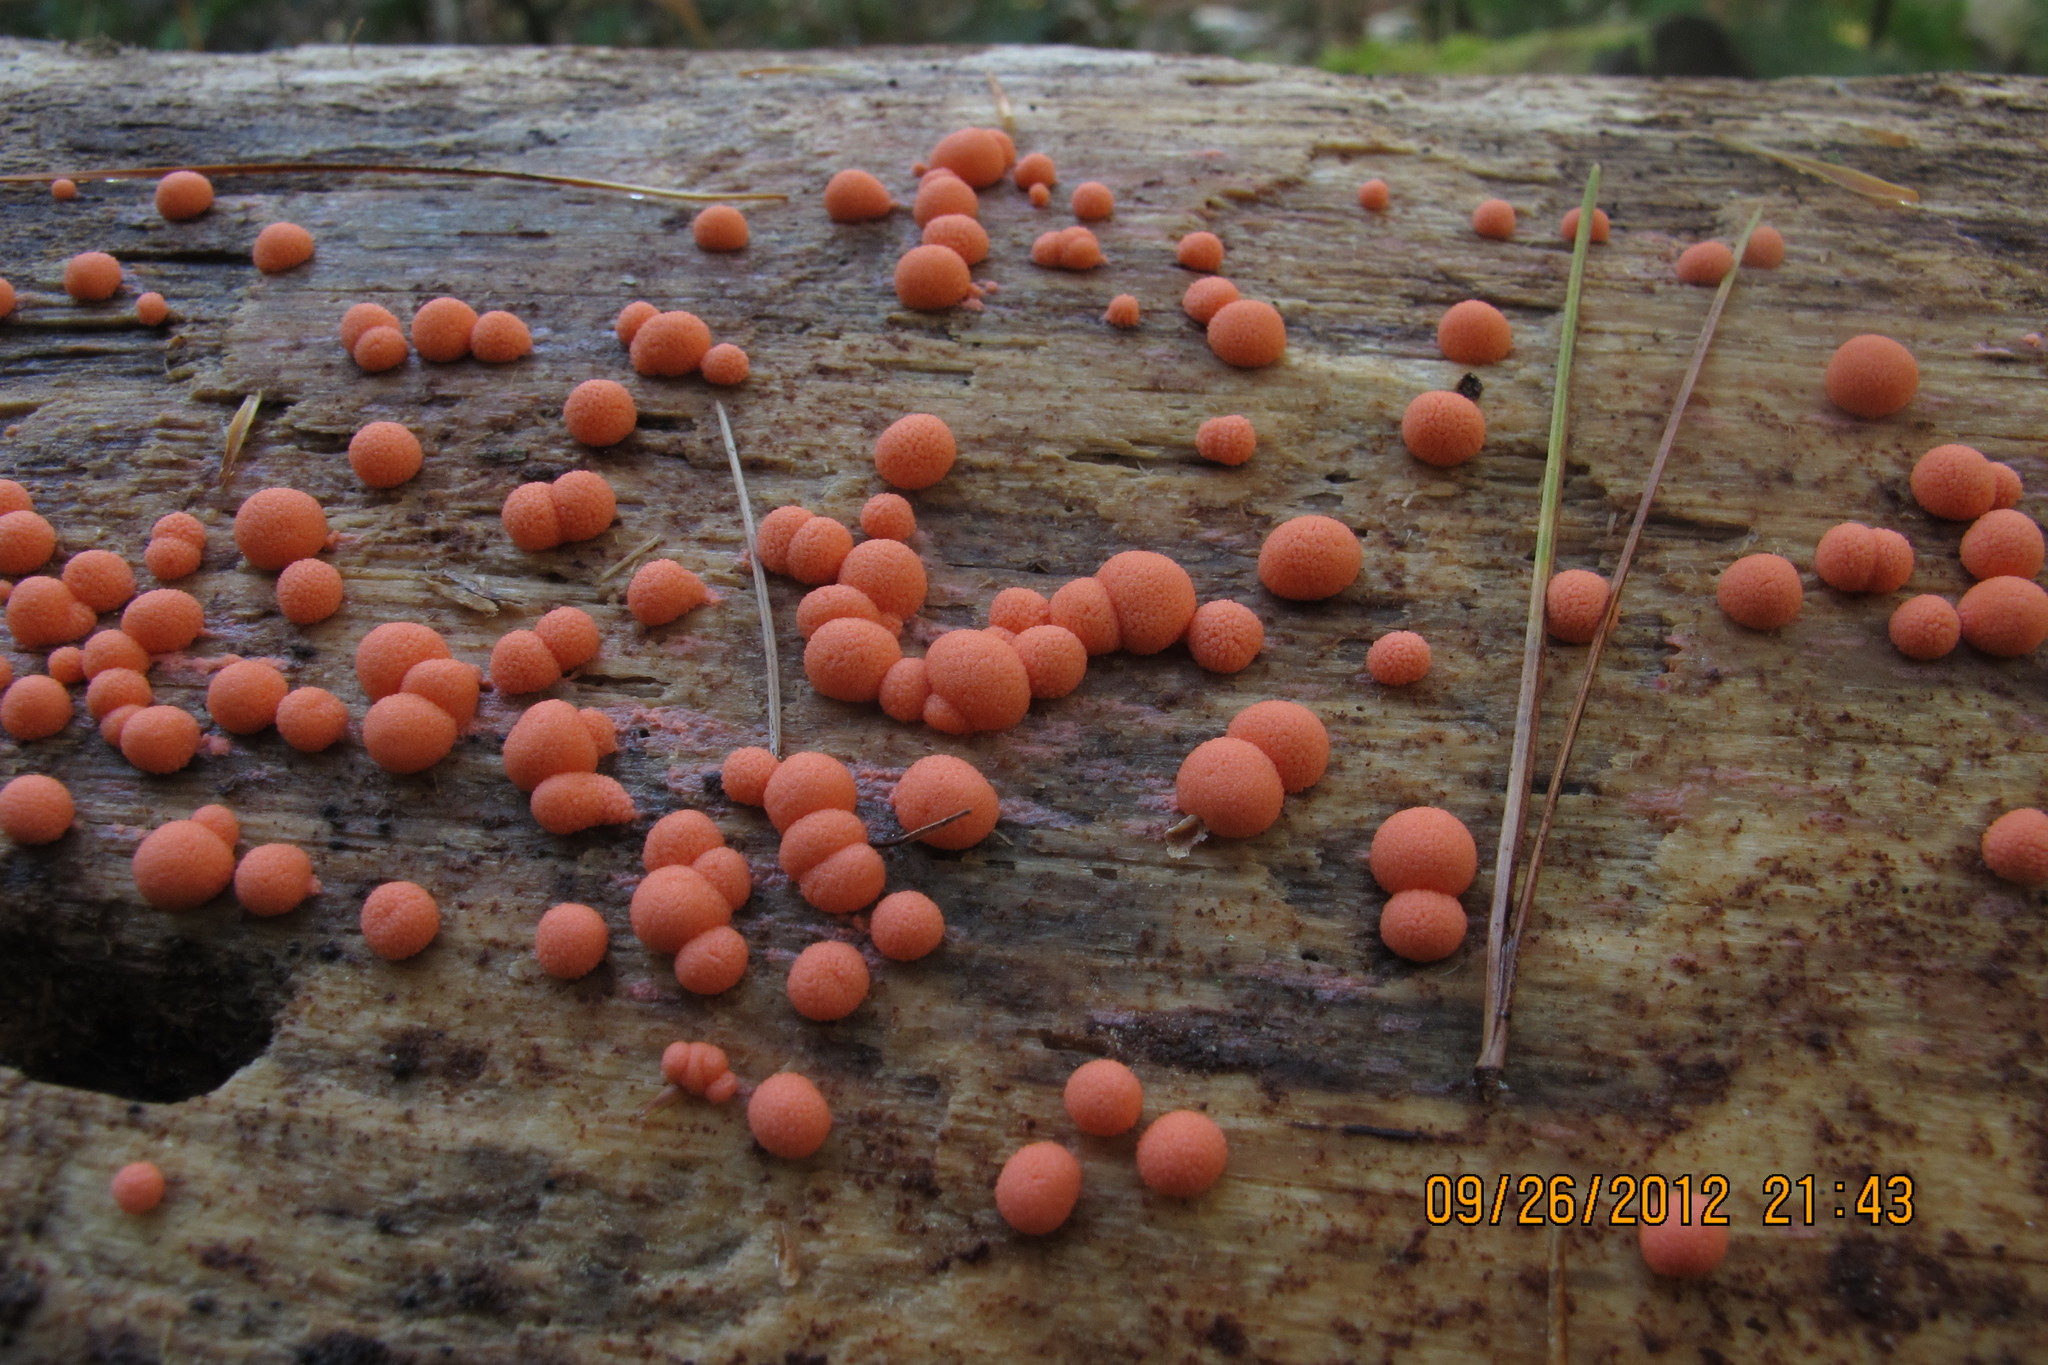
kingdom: Protozoa
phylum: Mycetozoa
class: Myxomycetes
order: Cribrariales
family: Tubiferaceae
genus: Lycogala
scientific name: Lycogala epidendrum
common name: Wolf's milk
